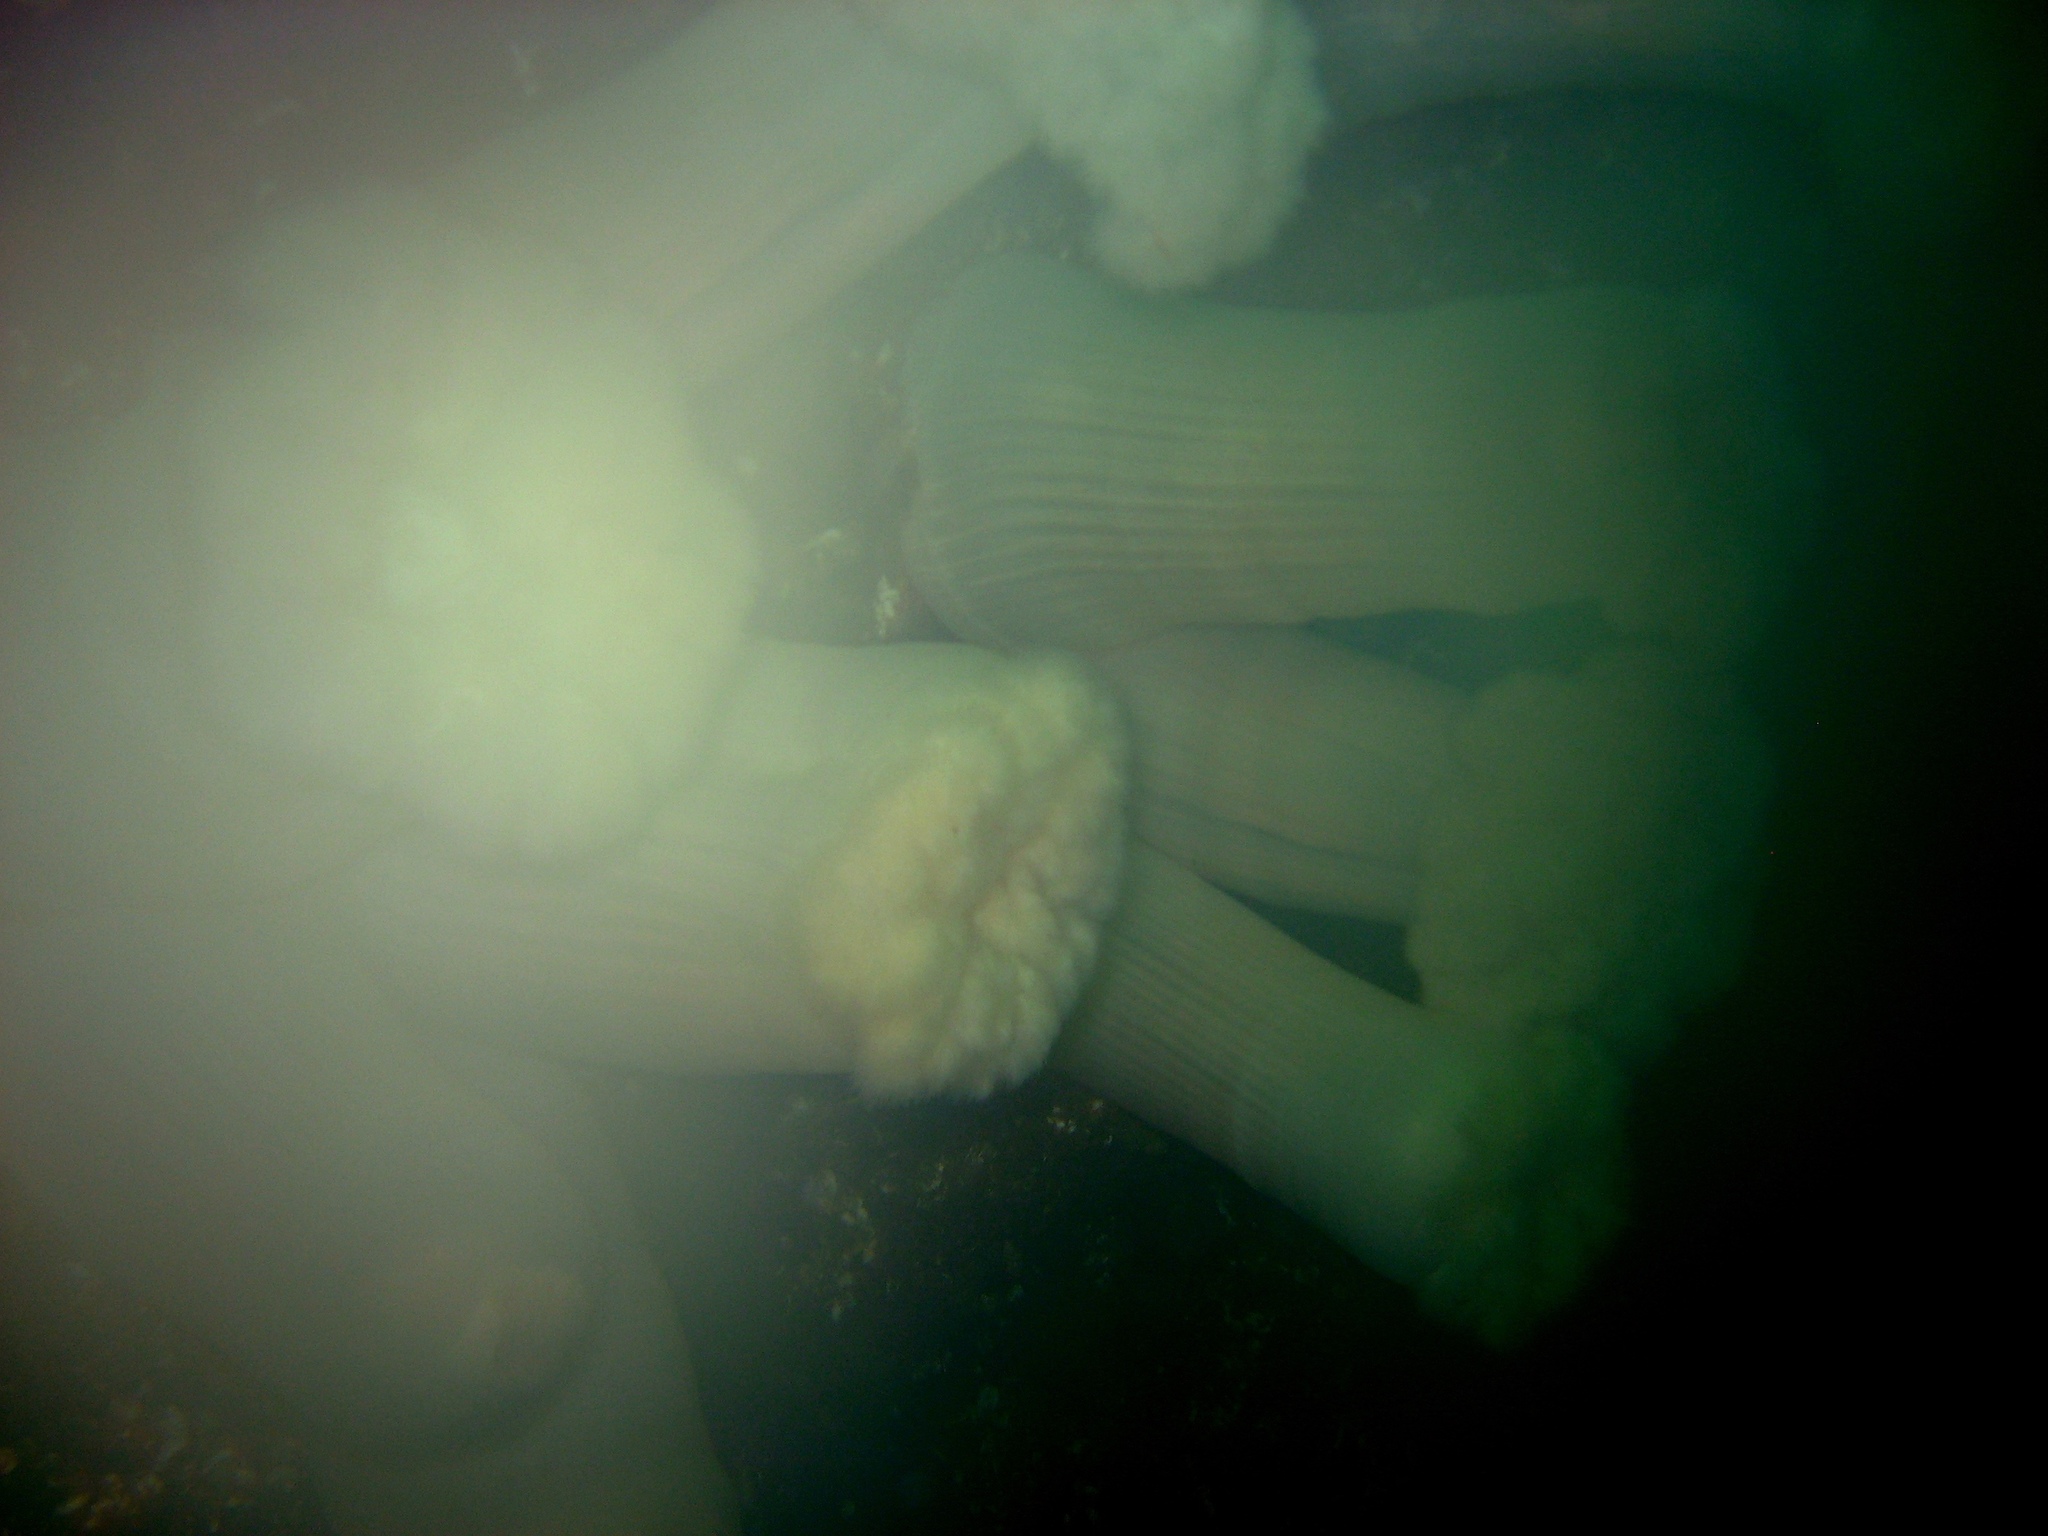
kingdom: Animalia
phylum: Cnidaria
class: Anthozoa
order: Actiniaria
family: Metridiidae
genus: Metridium
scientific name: Metridium farcimen
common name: Gigantic anemone
